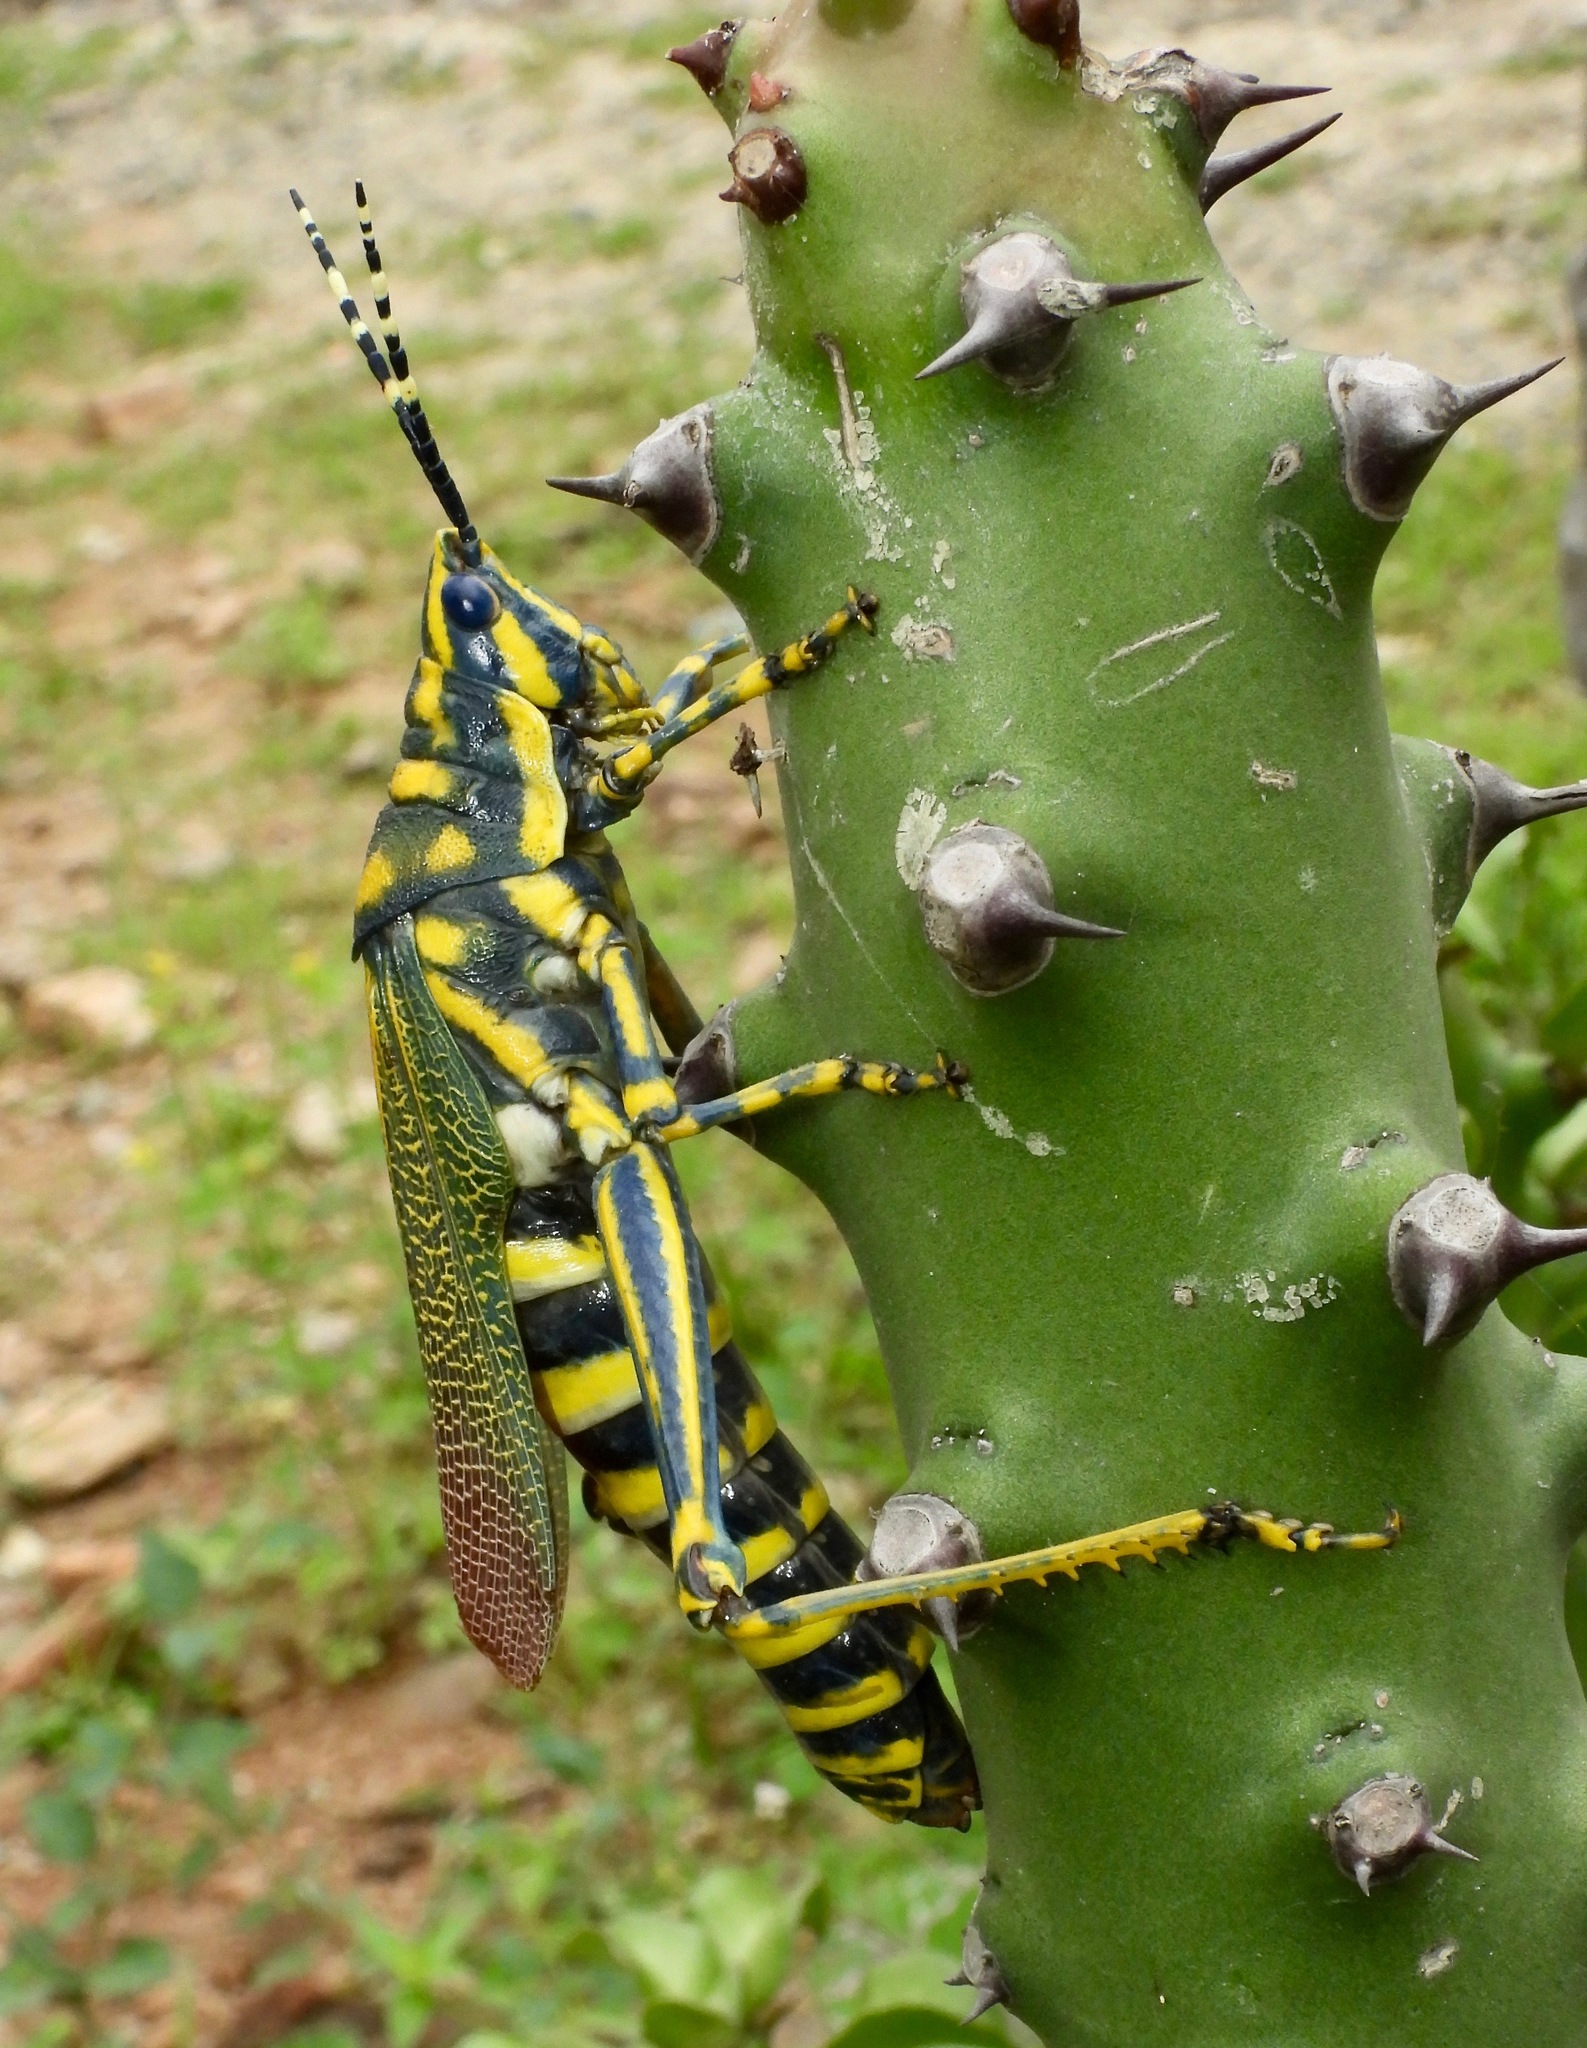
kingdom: Animalia
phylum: Arthropoda
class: Insecta
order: Orthoptera
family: Pyrgomorphidae
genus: Poekilocerus
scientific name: Poekilocerus pictus
